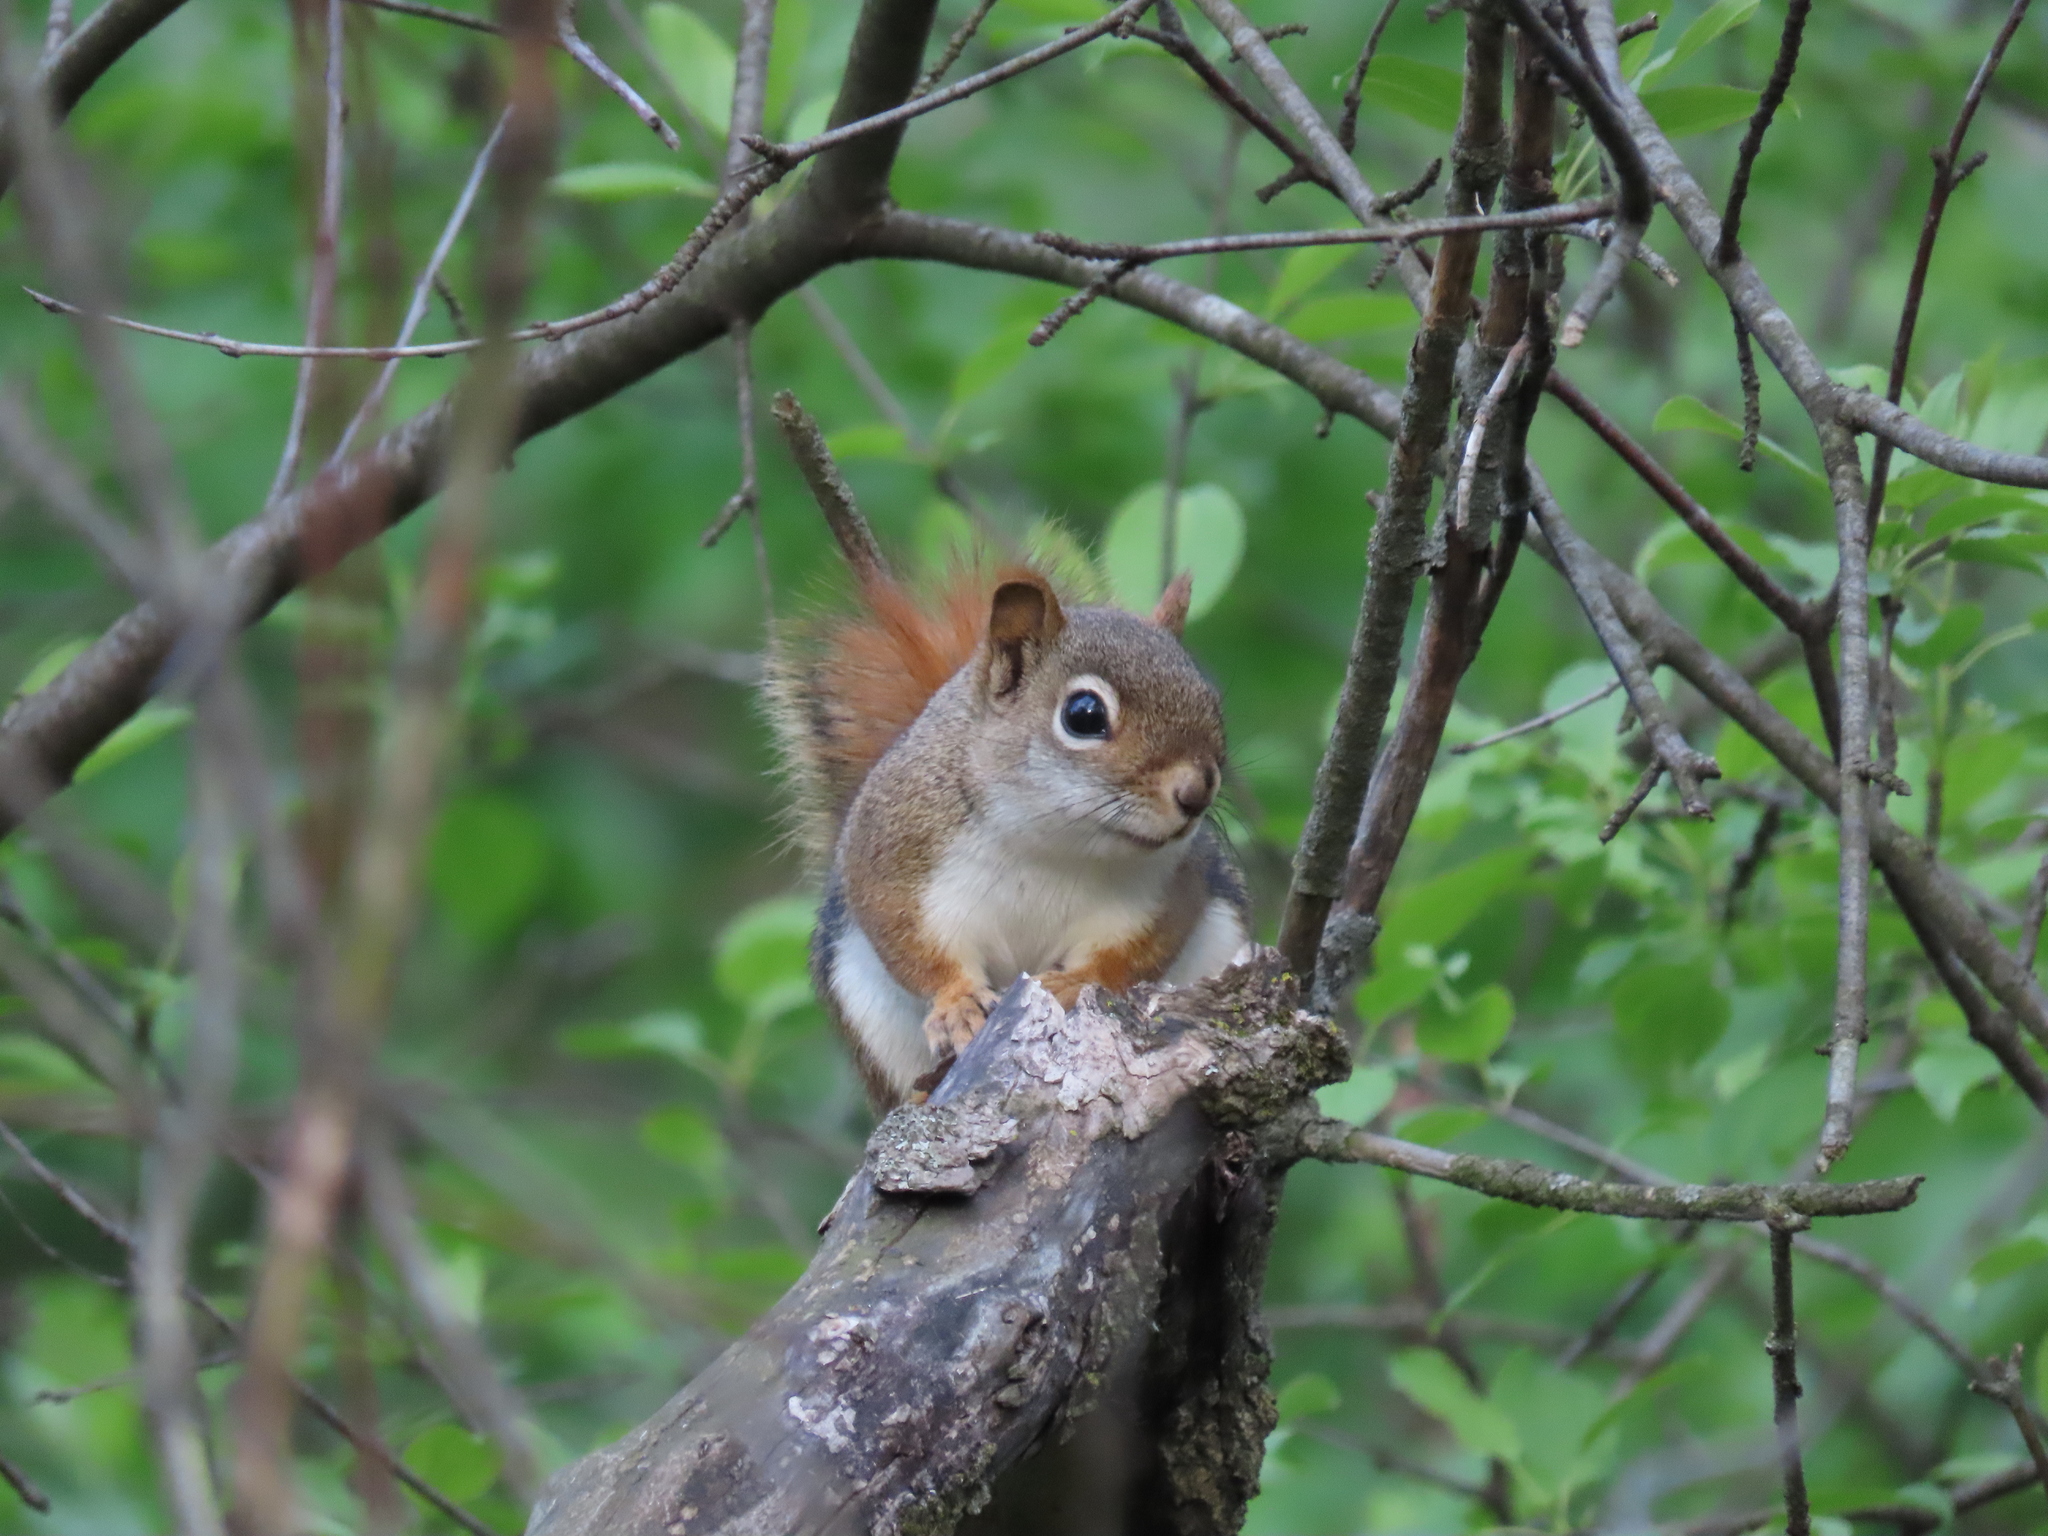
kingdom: Animalia
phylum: Chordata
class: Mammalia
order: Rodentia
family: Sciuridae
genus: Tamiasciurus
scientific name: Tamiasciurus hudsonicus
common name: Red squirrel
